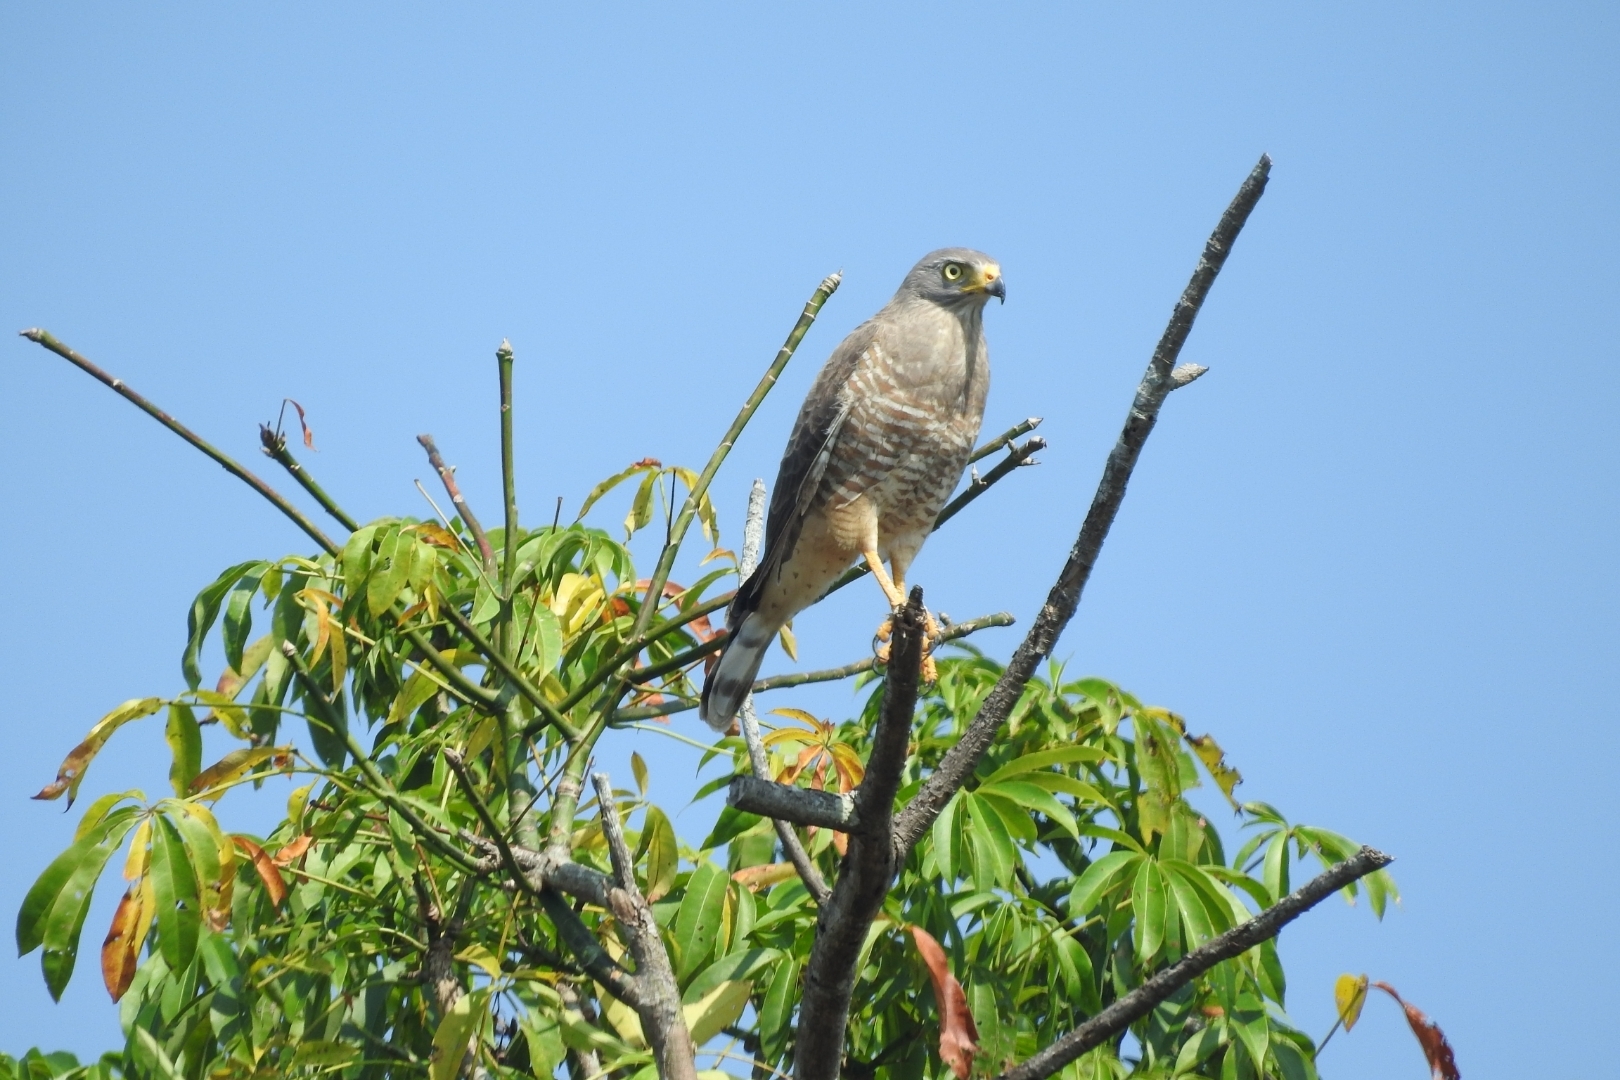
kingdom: Animalia
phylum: Chordata
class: Aves
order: Accipitriformes
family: Accipitridae
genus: Rupornis
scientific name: Rupornis magnirostris
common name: Roadside hawk
